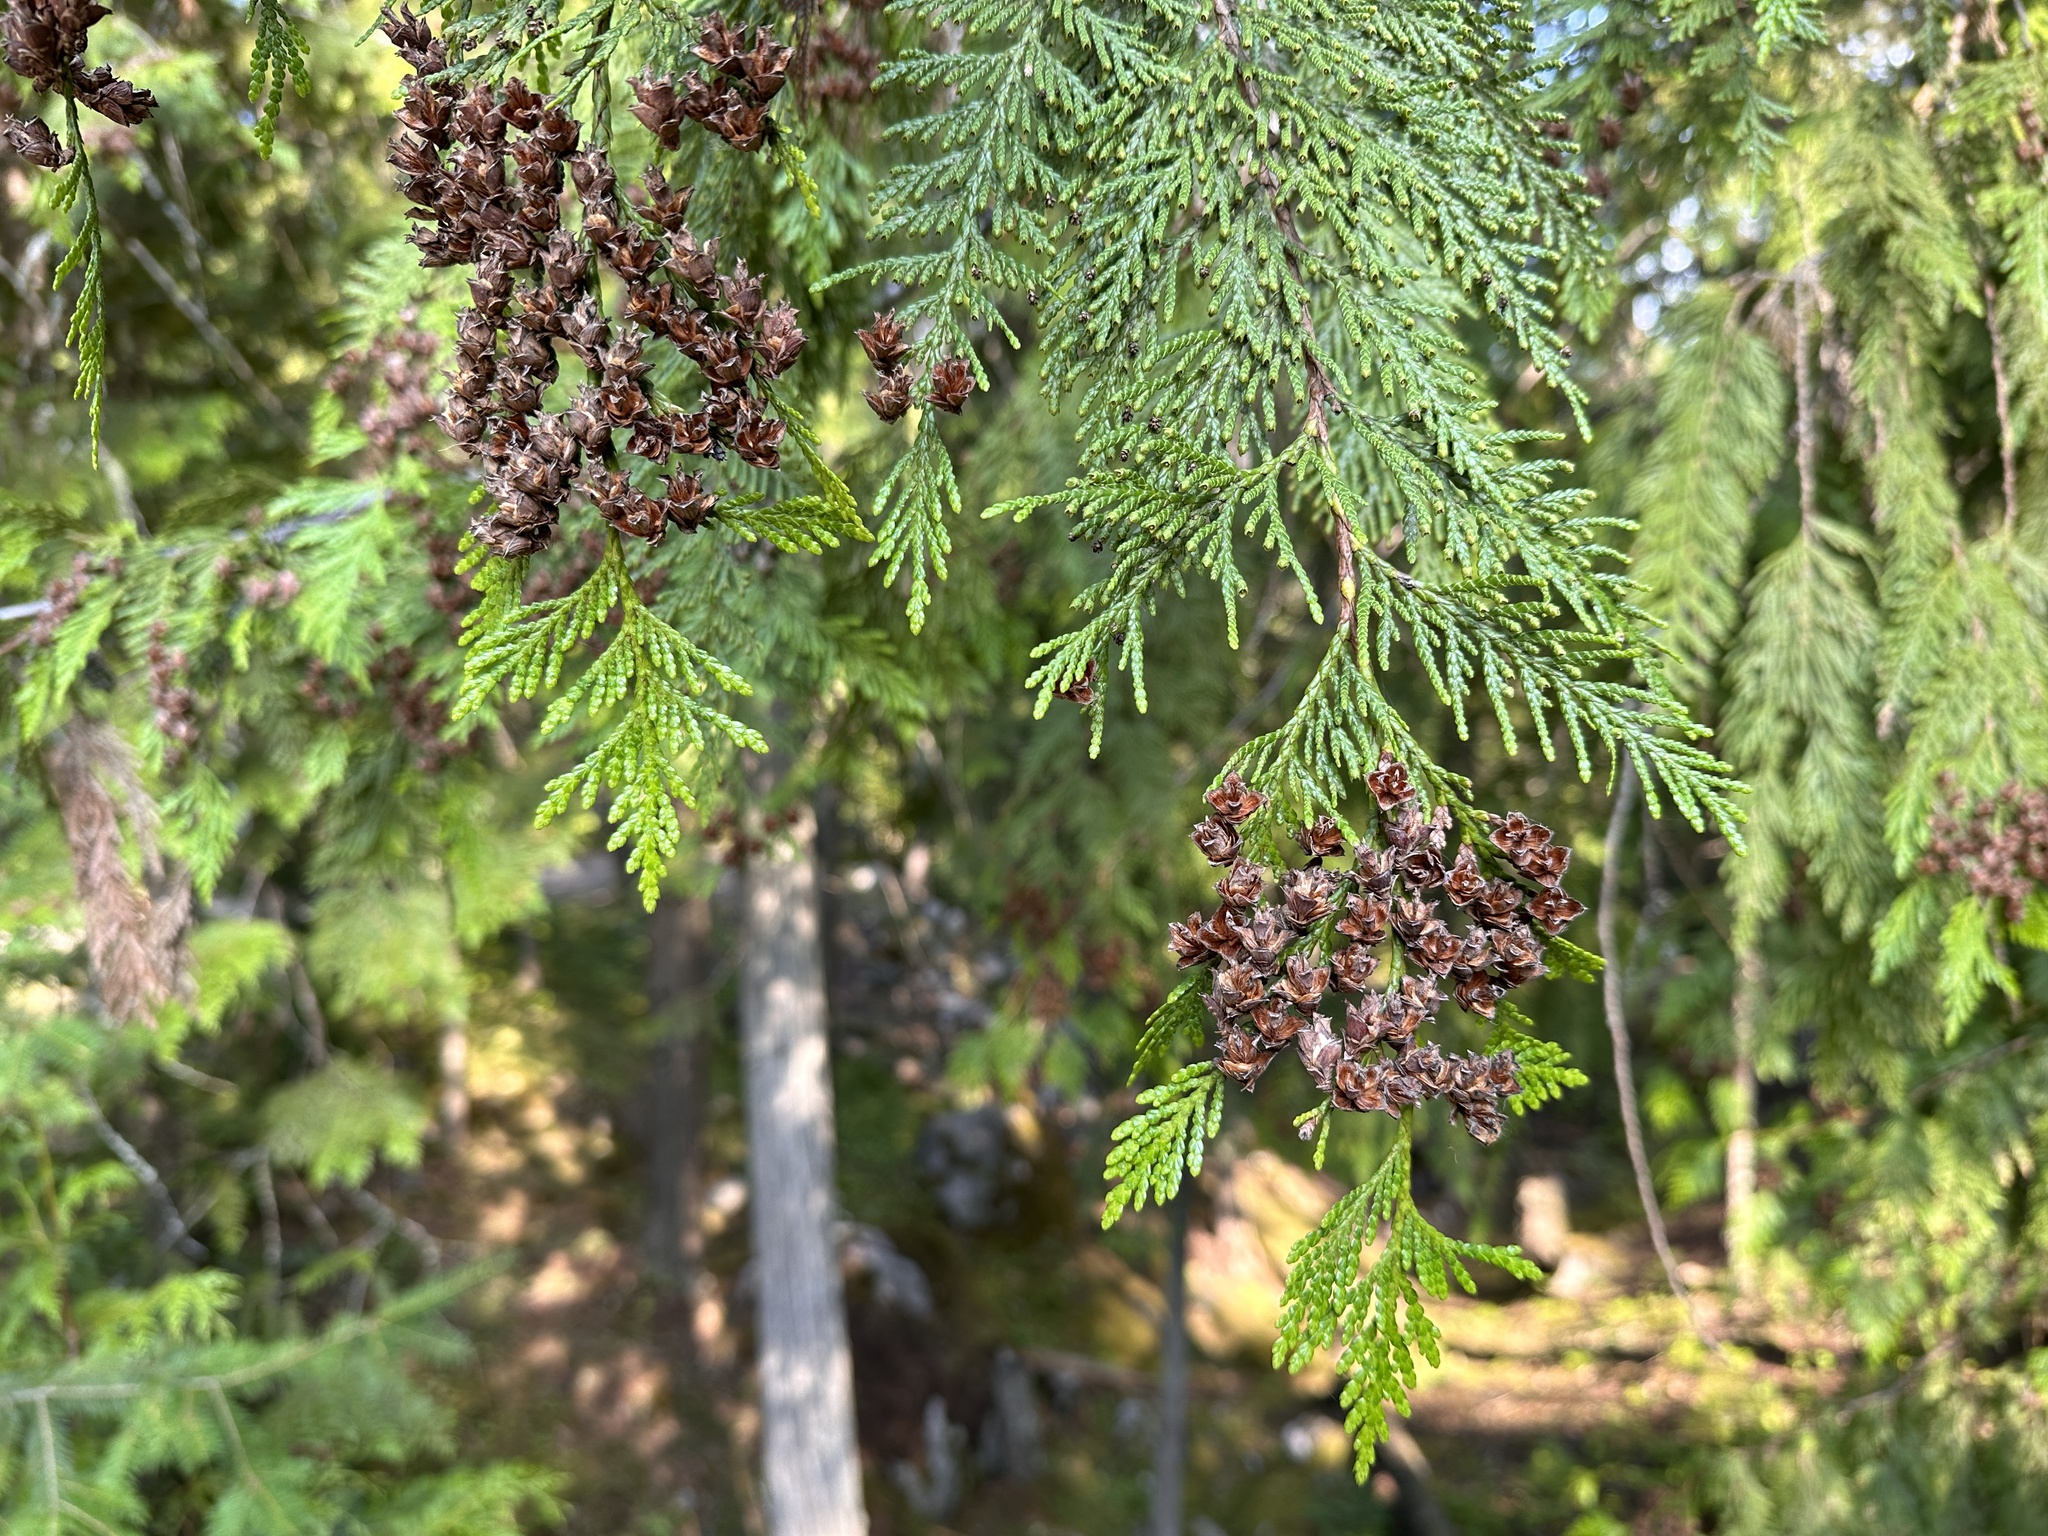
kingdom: Plantae
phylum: Tracheophyta
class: Pinopsida
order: Pinales
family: Cupressaceae
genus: Thuja
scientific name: Thuja plicata
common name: Western red-cedar
